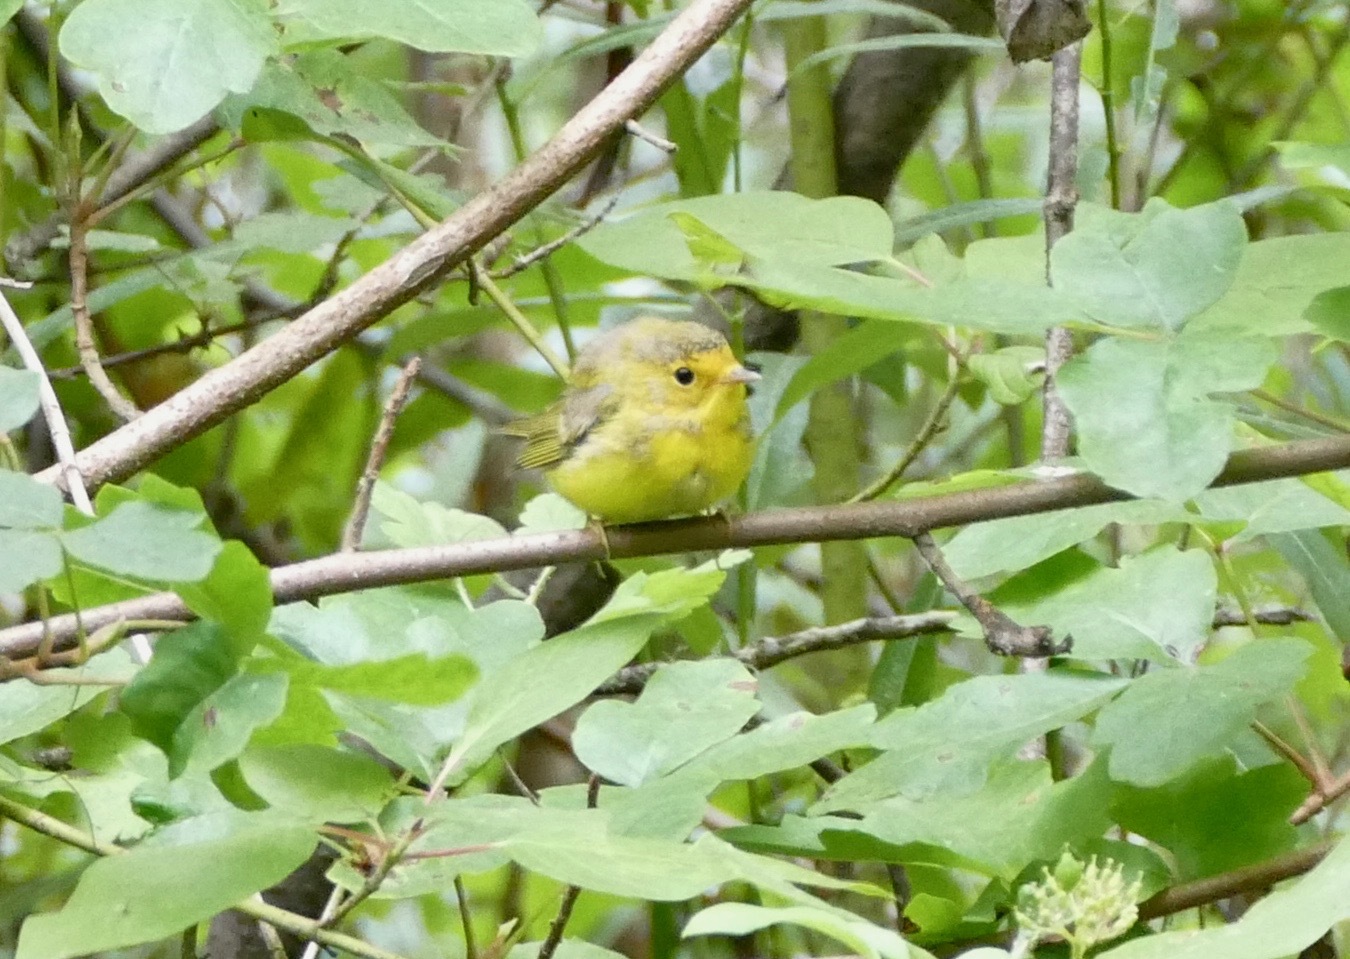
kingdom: Animalia
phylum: Chordata
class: Aves
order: Passeriformes
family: Parulidae
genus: Cardellina
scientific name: Cardellina pusilla
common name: Wilson's warbler
